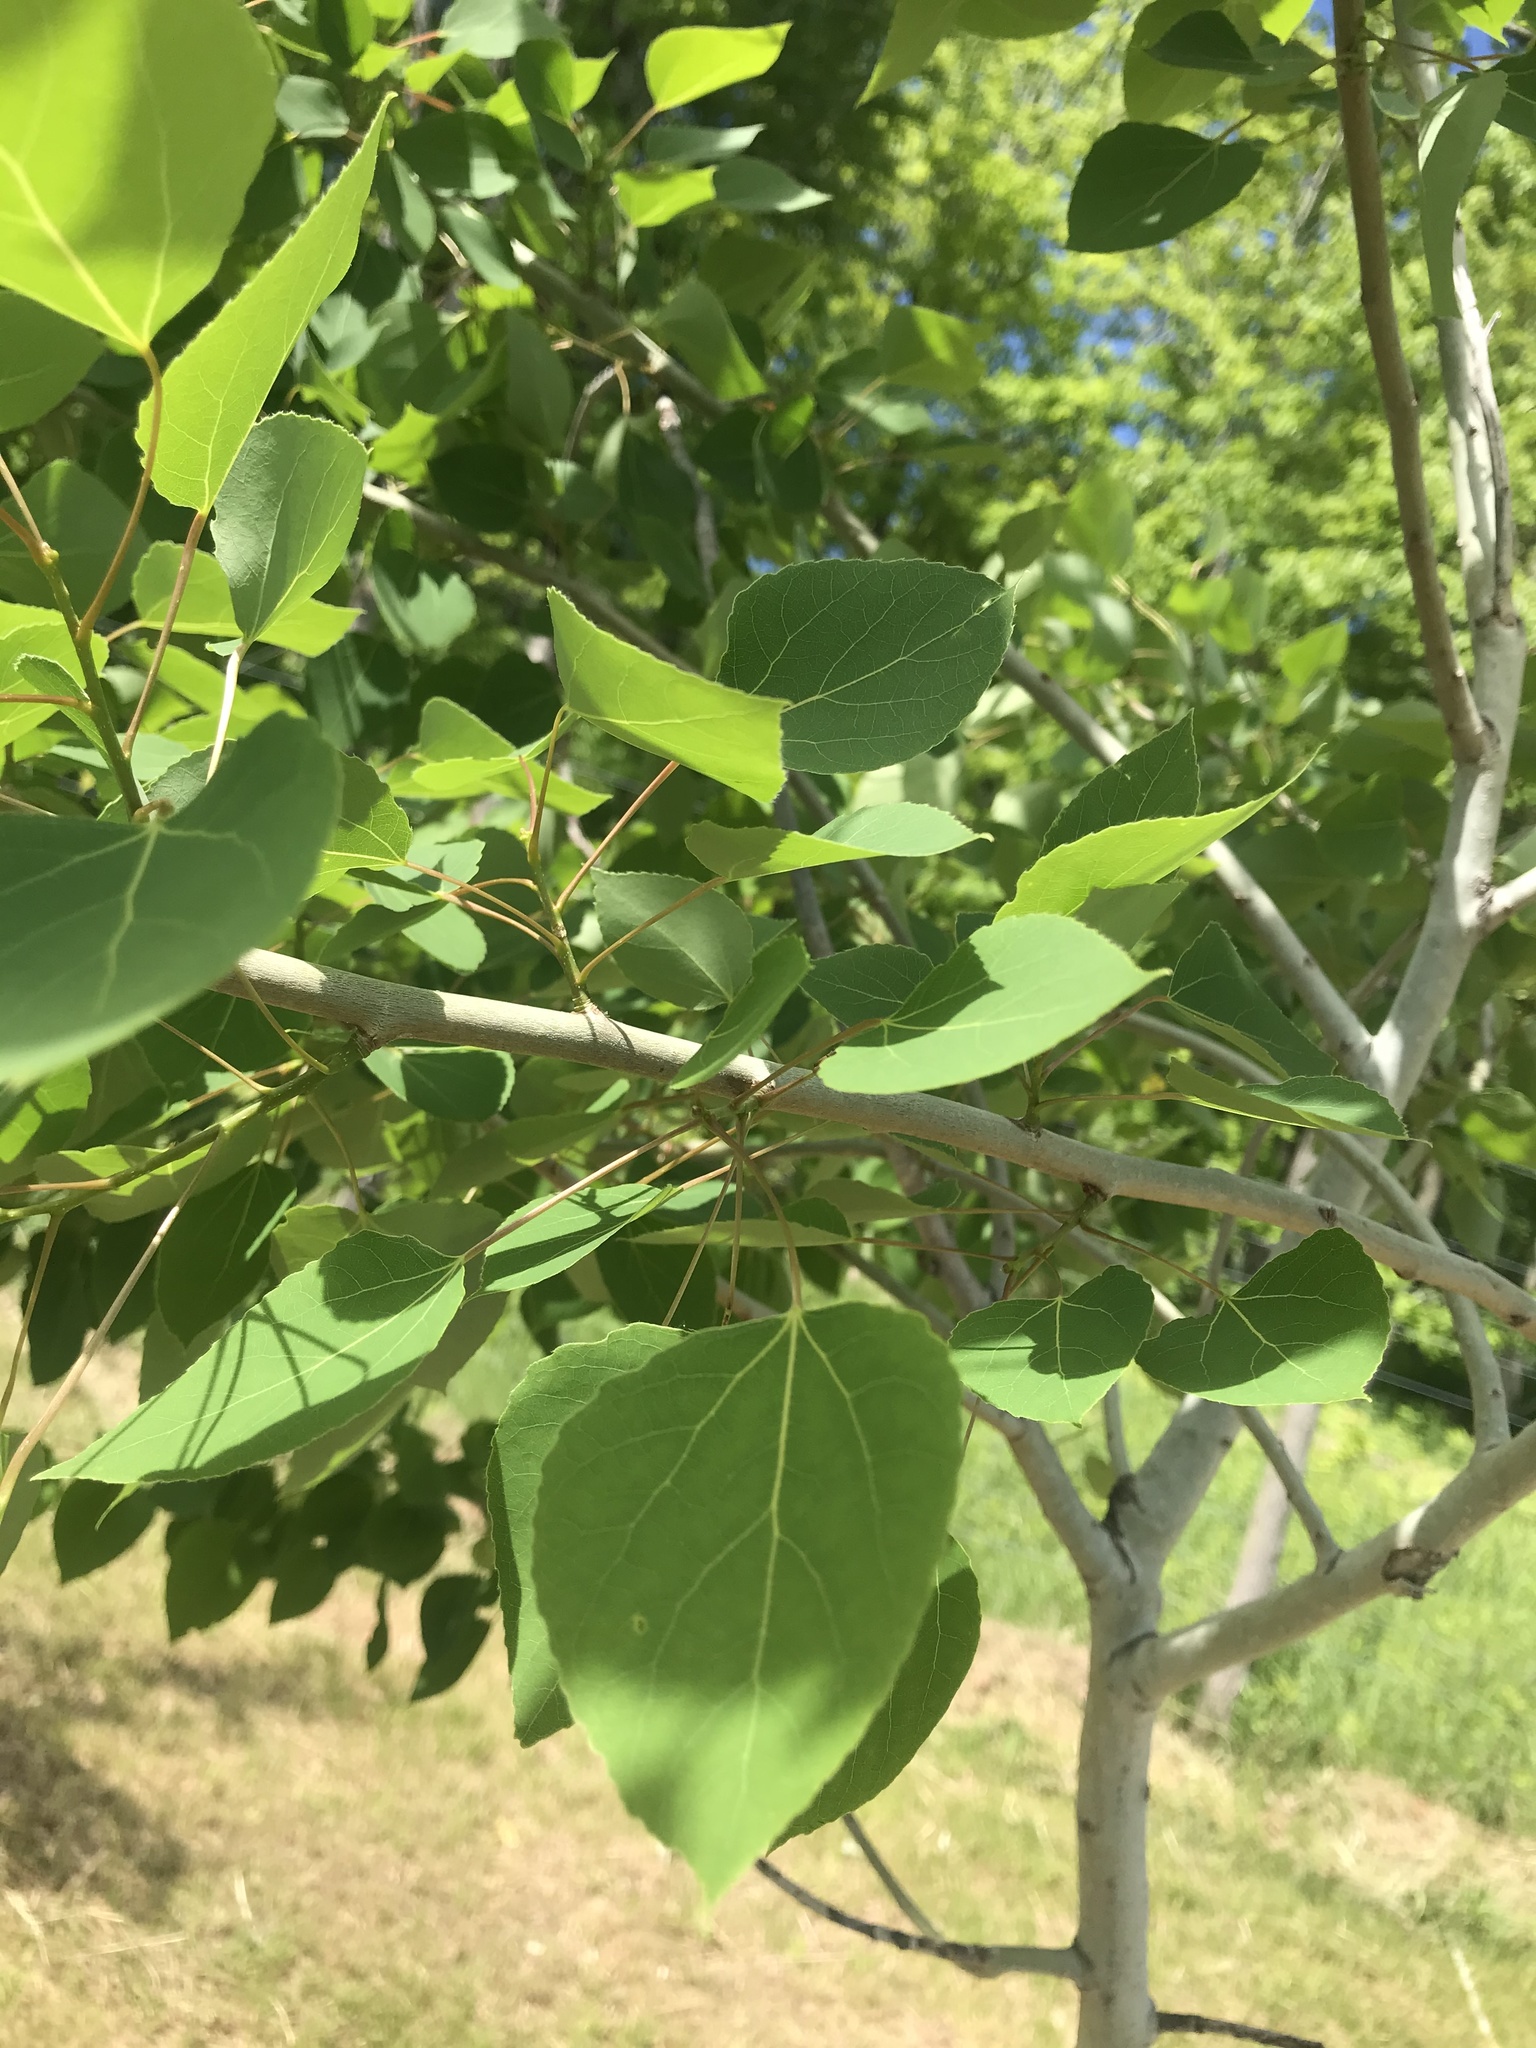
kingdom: Plantae
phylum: Tracheophyta
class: Magnoliopsida
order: Malpighiales
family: Salicaceae
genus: Populus
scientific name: Populus tremuloides
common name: Quaking aspen
